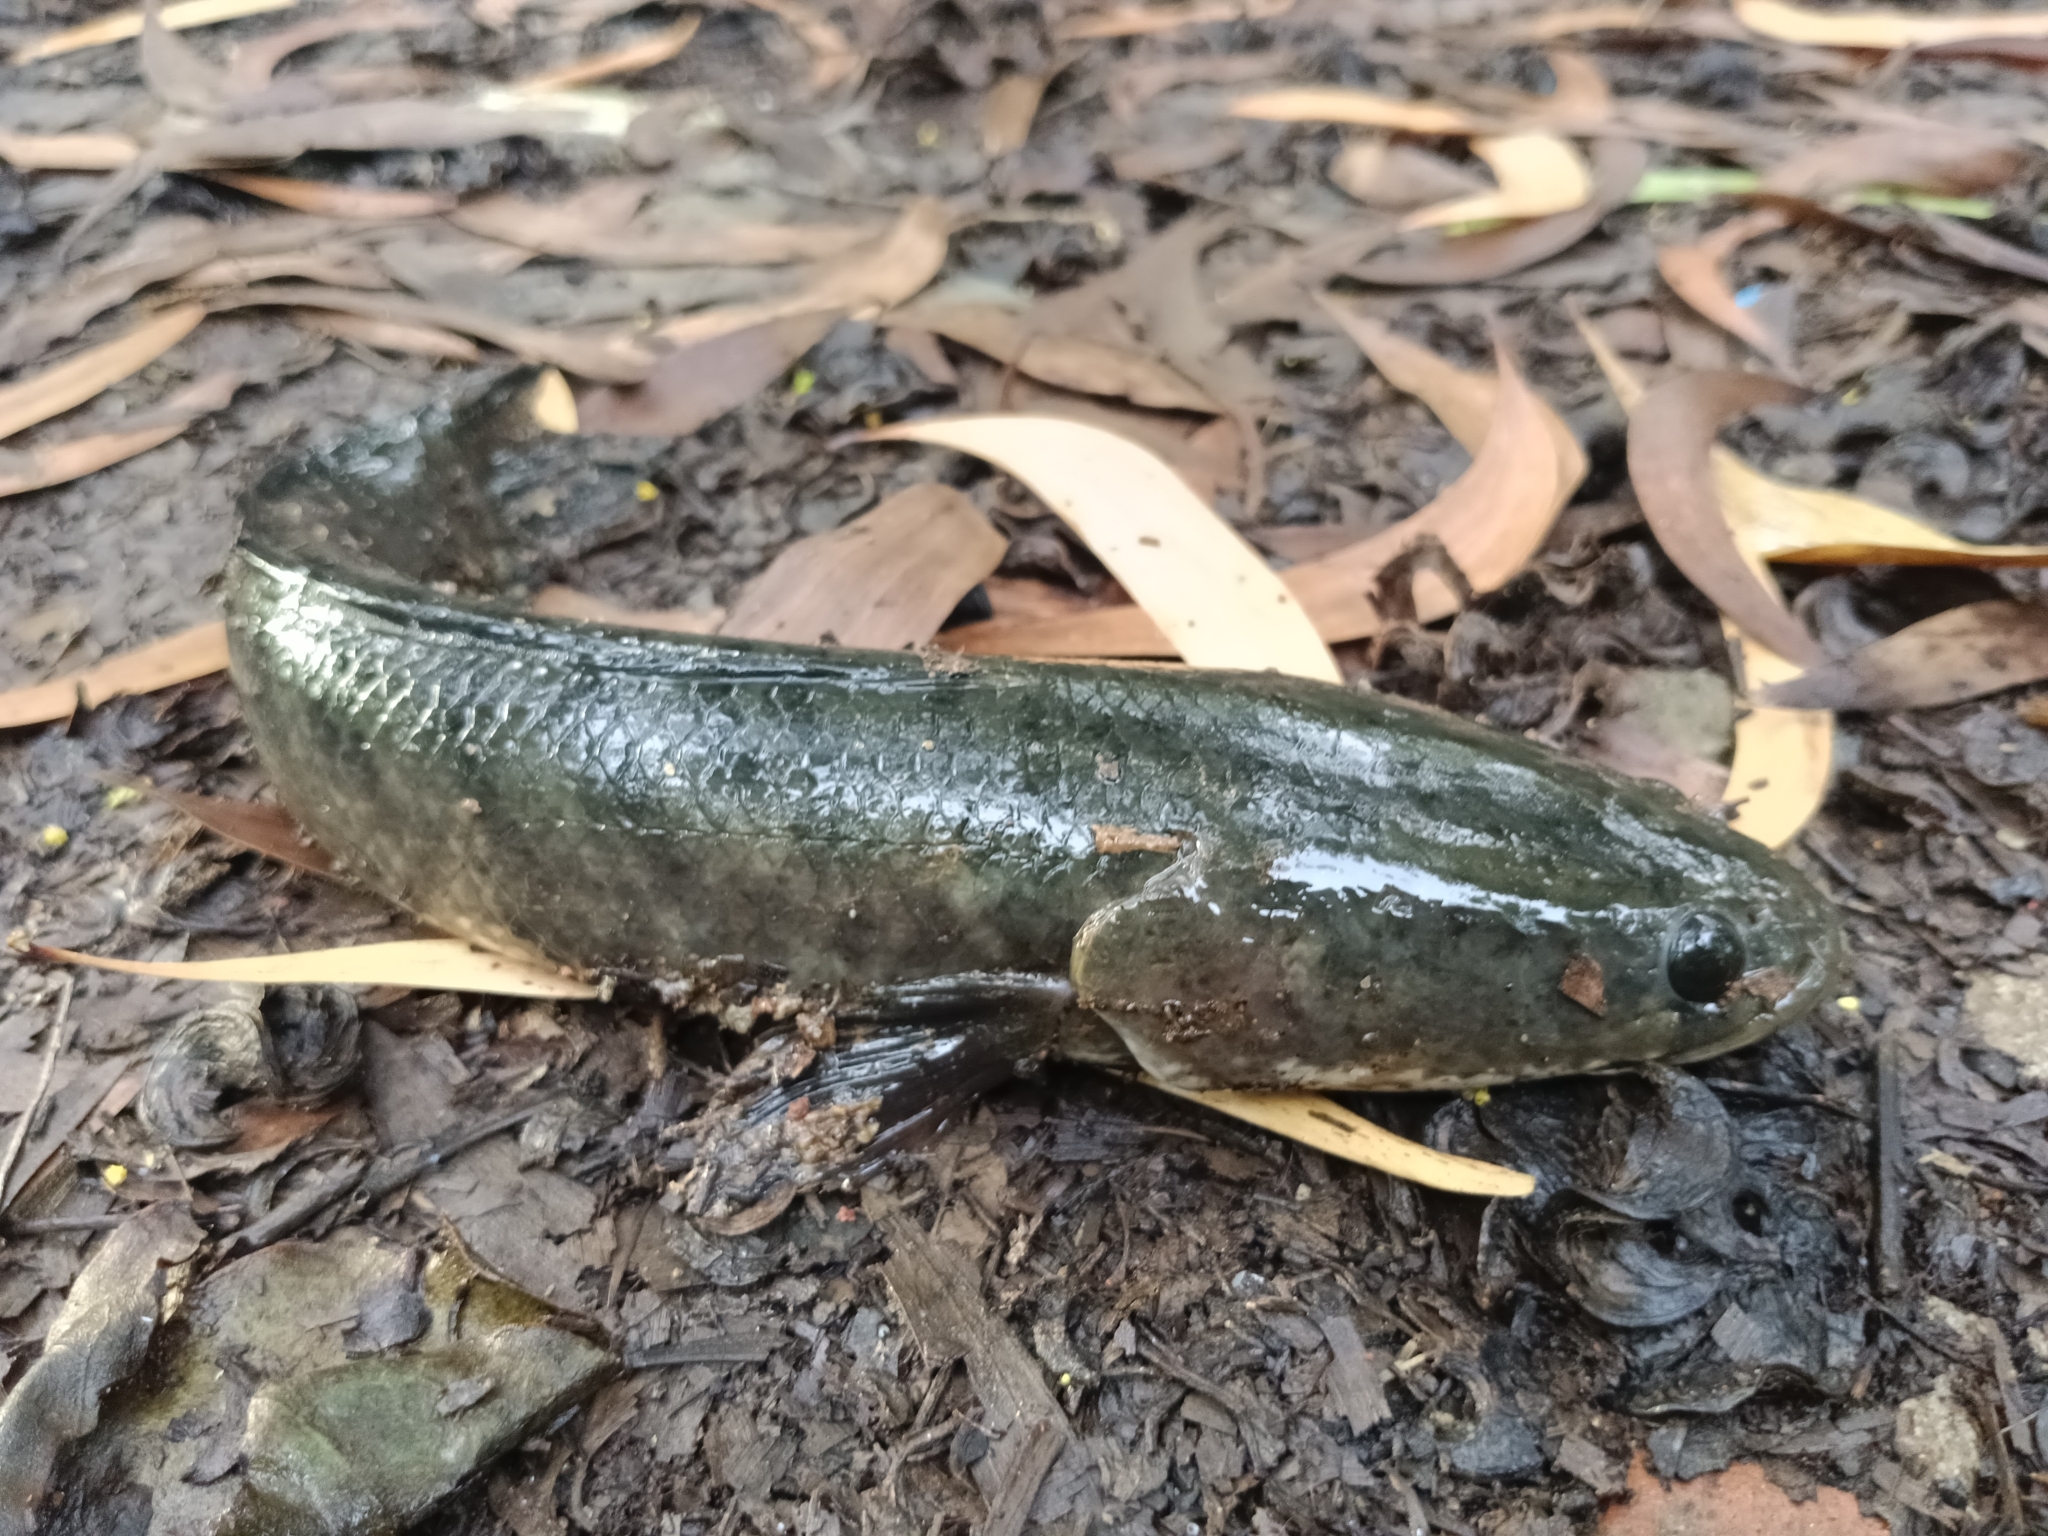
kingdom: Animalia
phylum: Chordata
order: Perciformes
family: Channidae
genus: Channa
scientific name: Channa punctata
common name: Spotted snakehead
